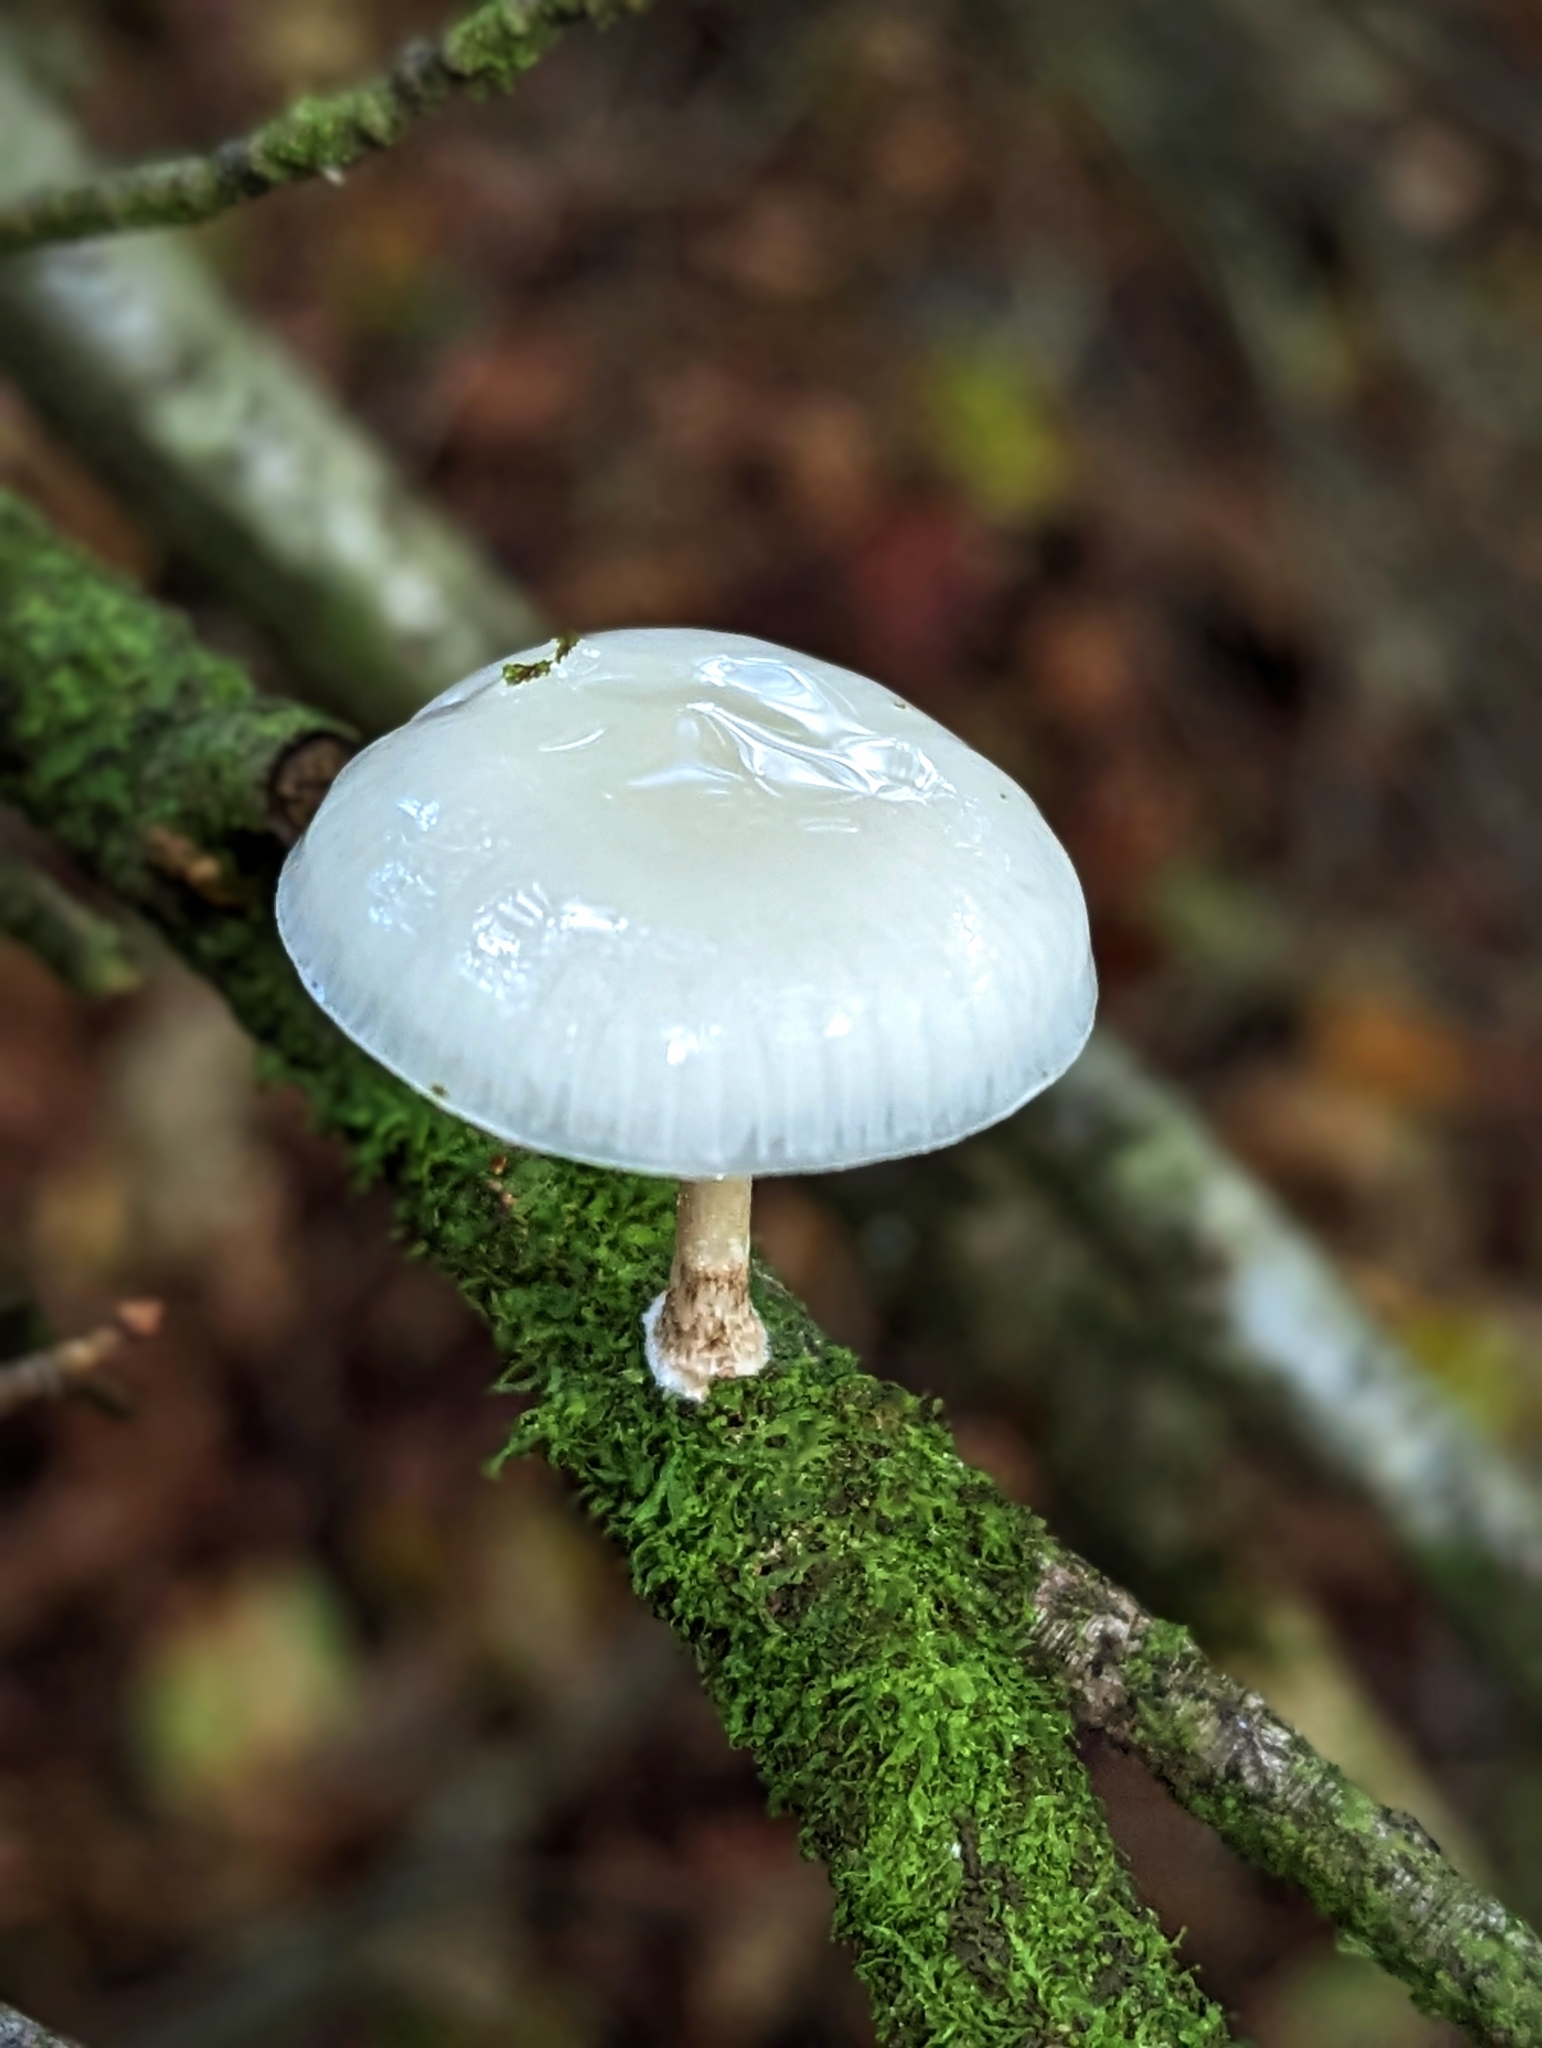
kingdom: Fungi
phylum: Basidiomycota
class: Agaricomycetes
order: Agaricales
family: Physalacriaceae
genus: Mucidula
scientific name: Mucidula mucida
